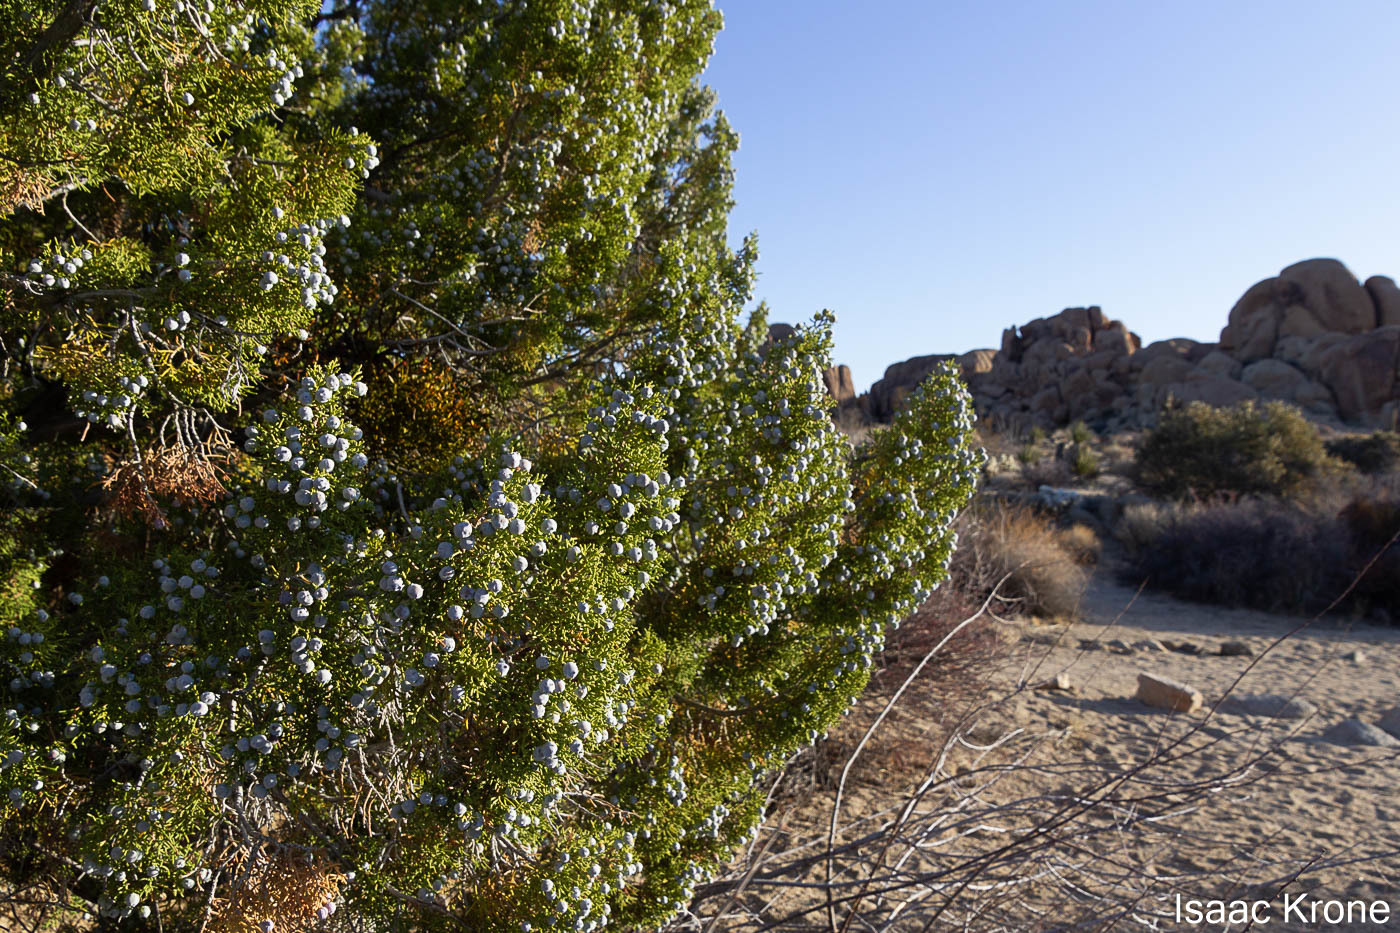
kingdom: Plantae
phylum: Tracheophyta
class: Pinopsida
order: Pinales
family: Cupressaceae
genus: Juniperus
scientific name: Juniperus californica
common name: California juniper
